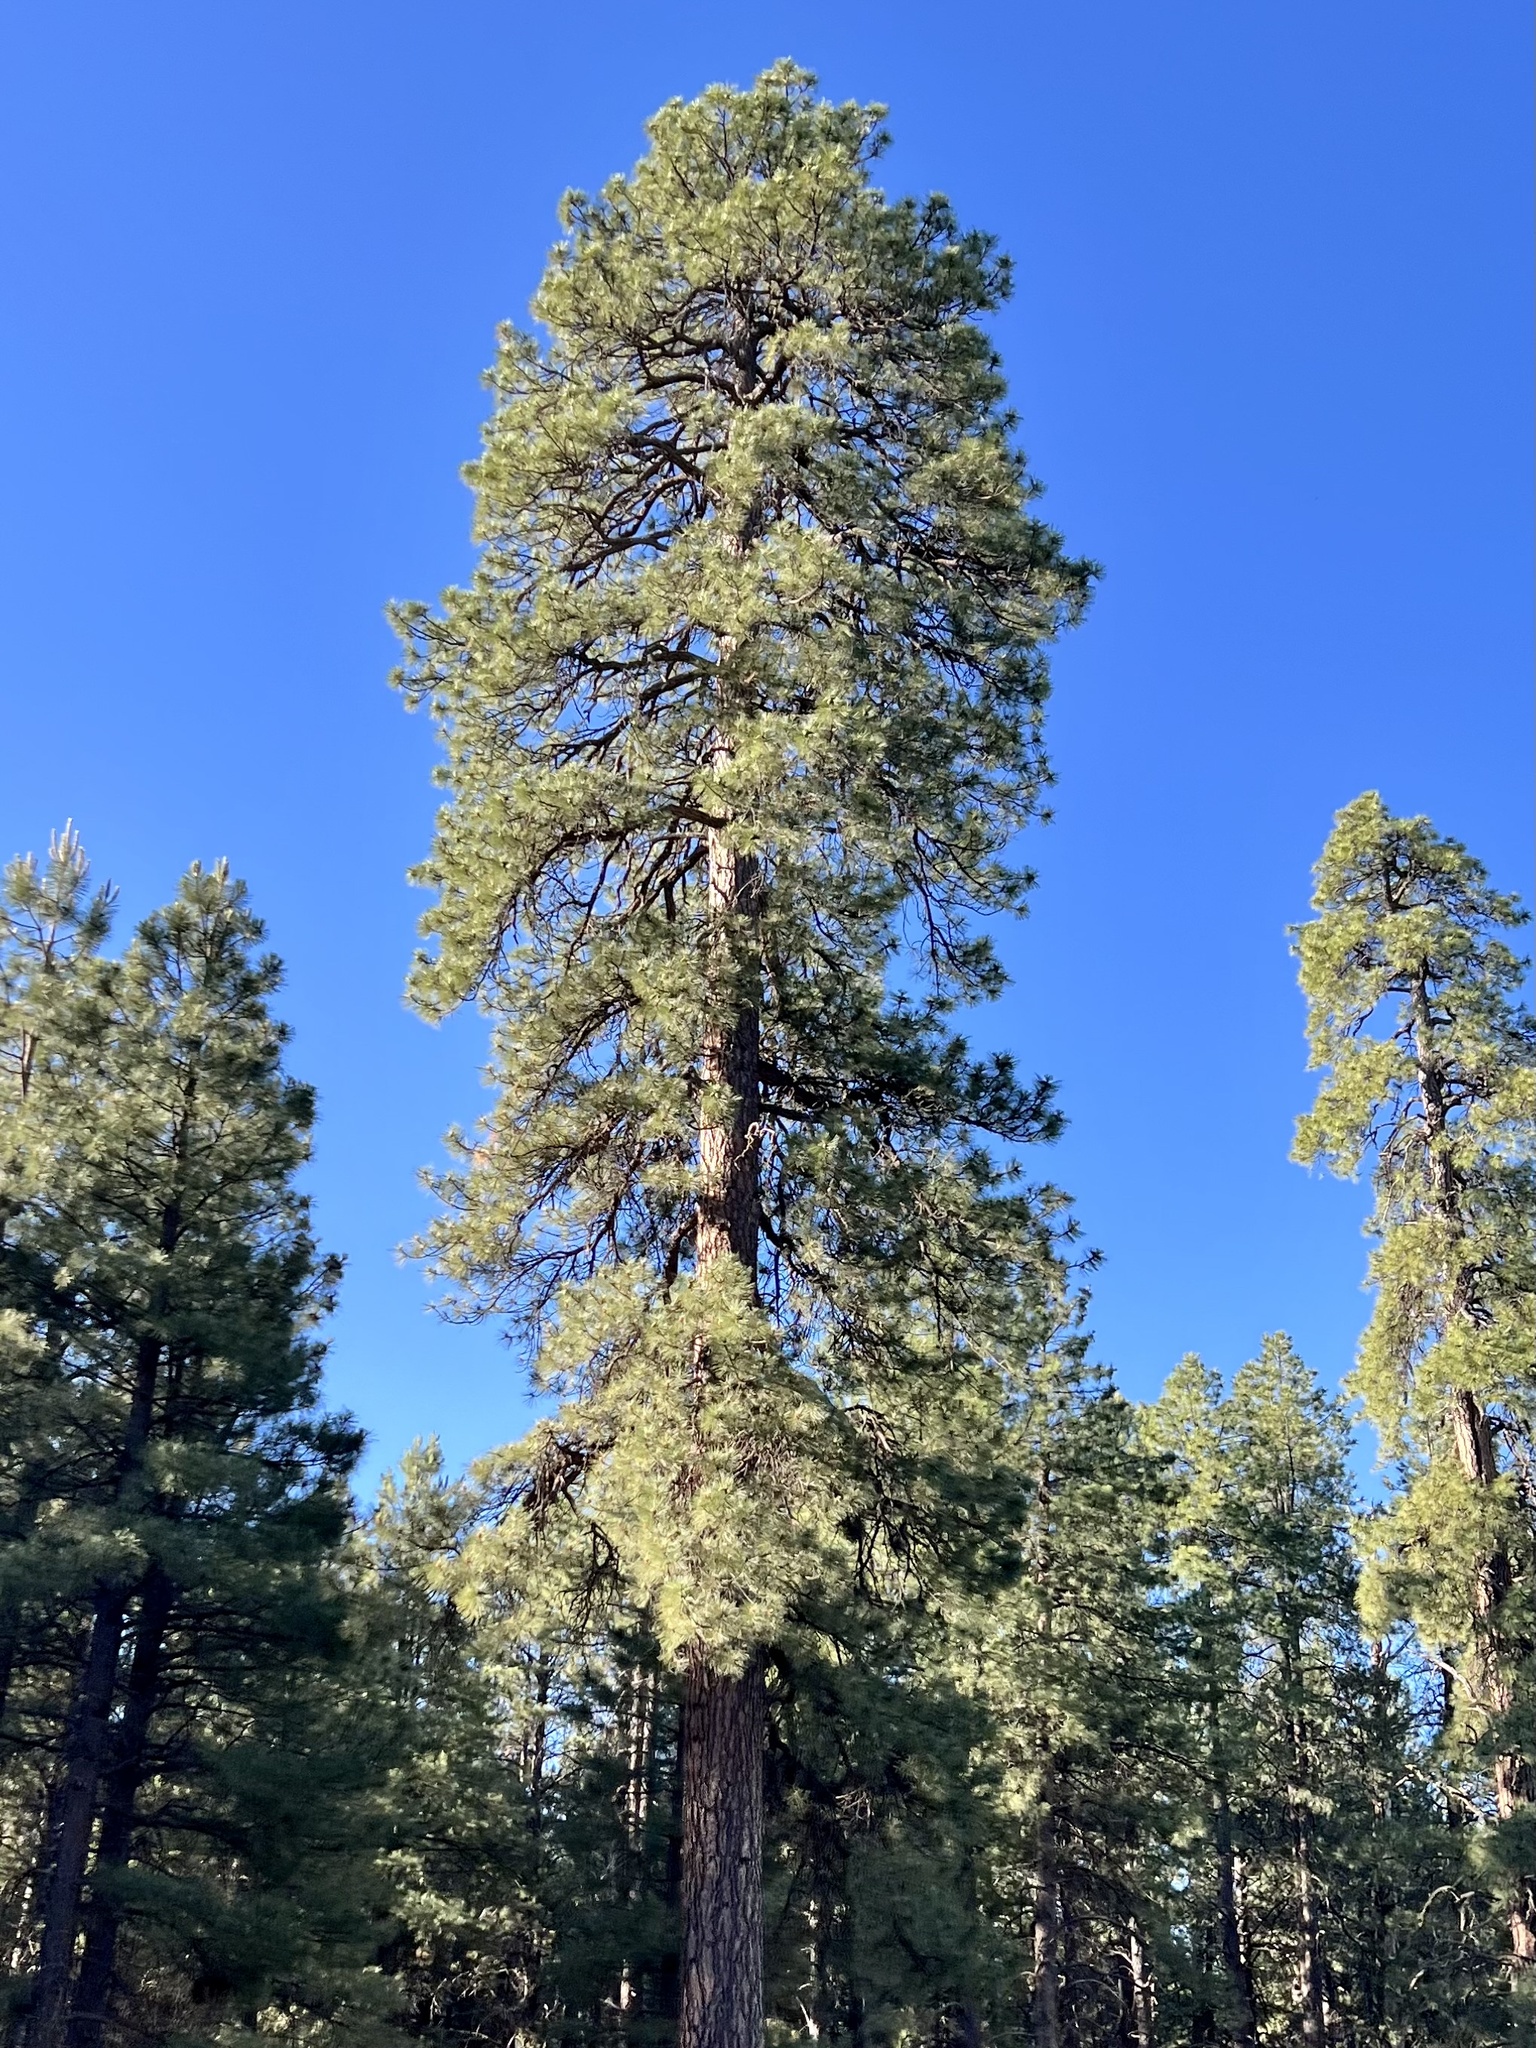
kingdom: Plantae
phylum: Tracheophyta
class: Pinopsida
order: Pinales
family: Pinaceae
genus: Pinus
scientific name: Pinus ponderosa
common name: Western yellow-pine
